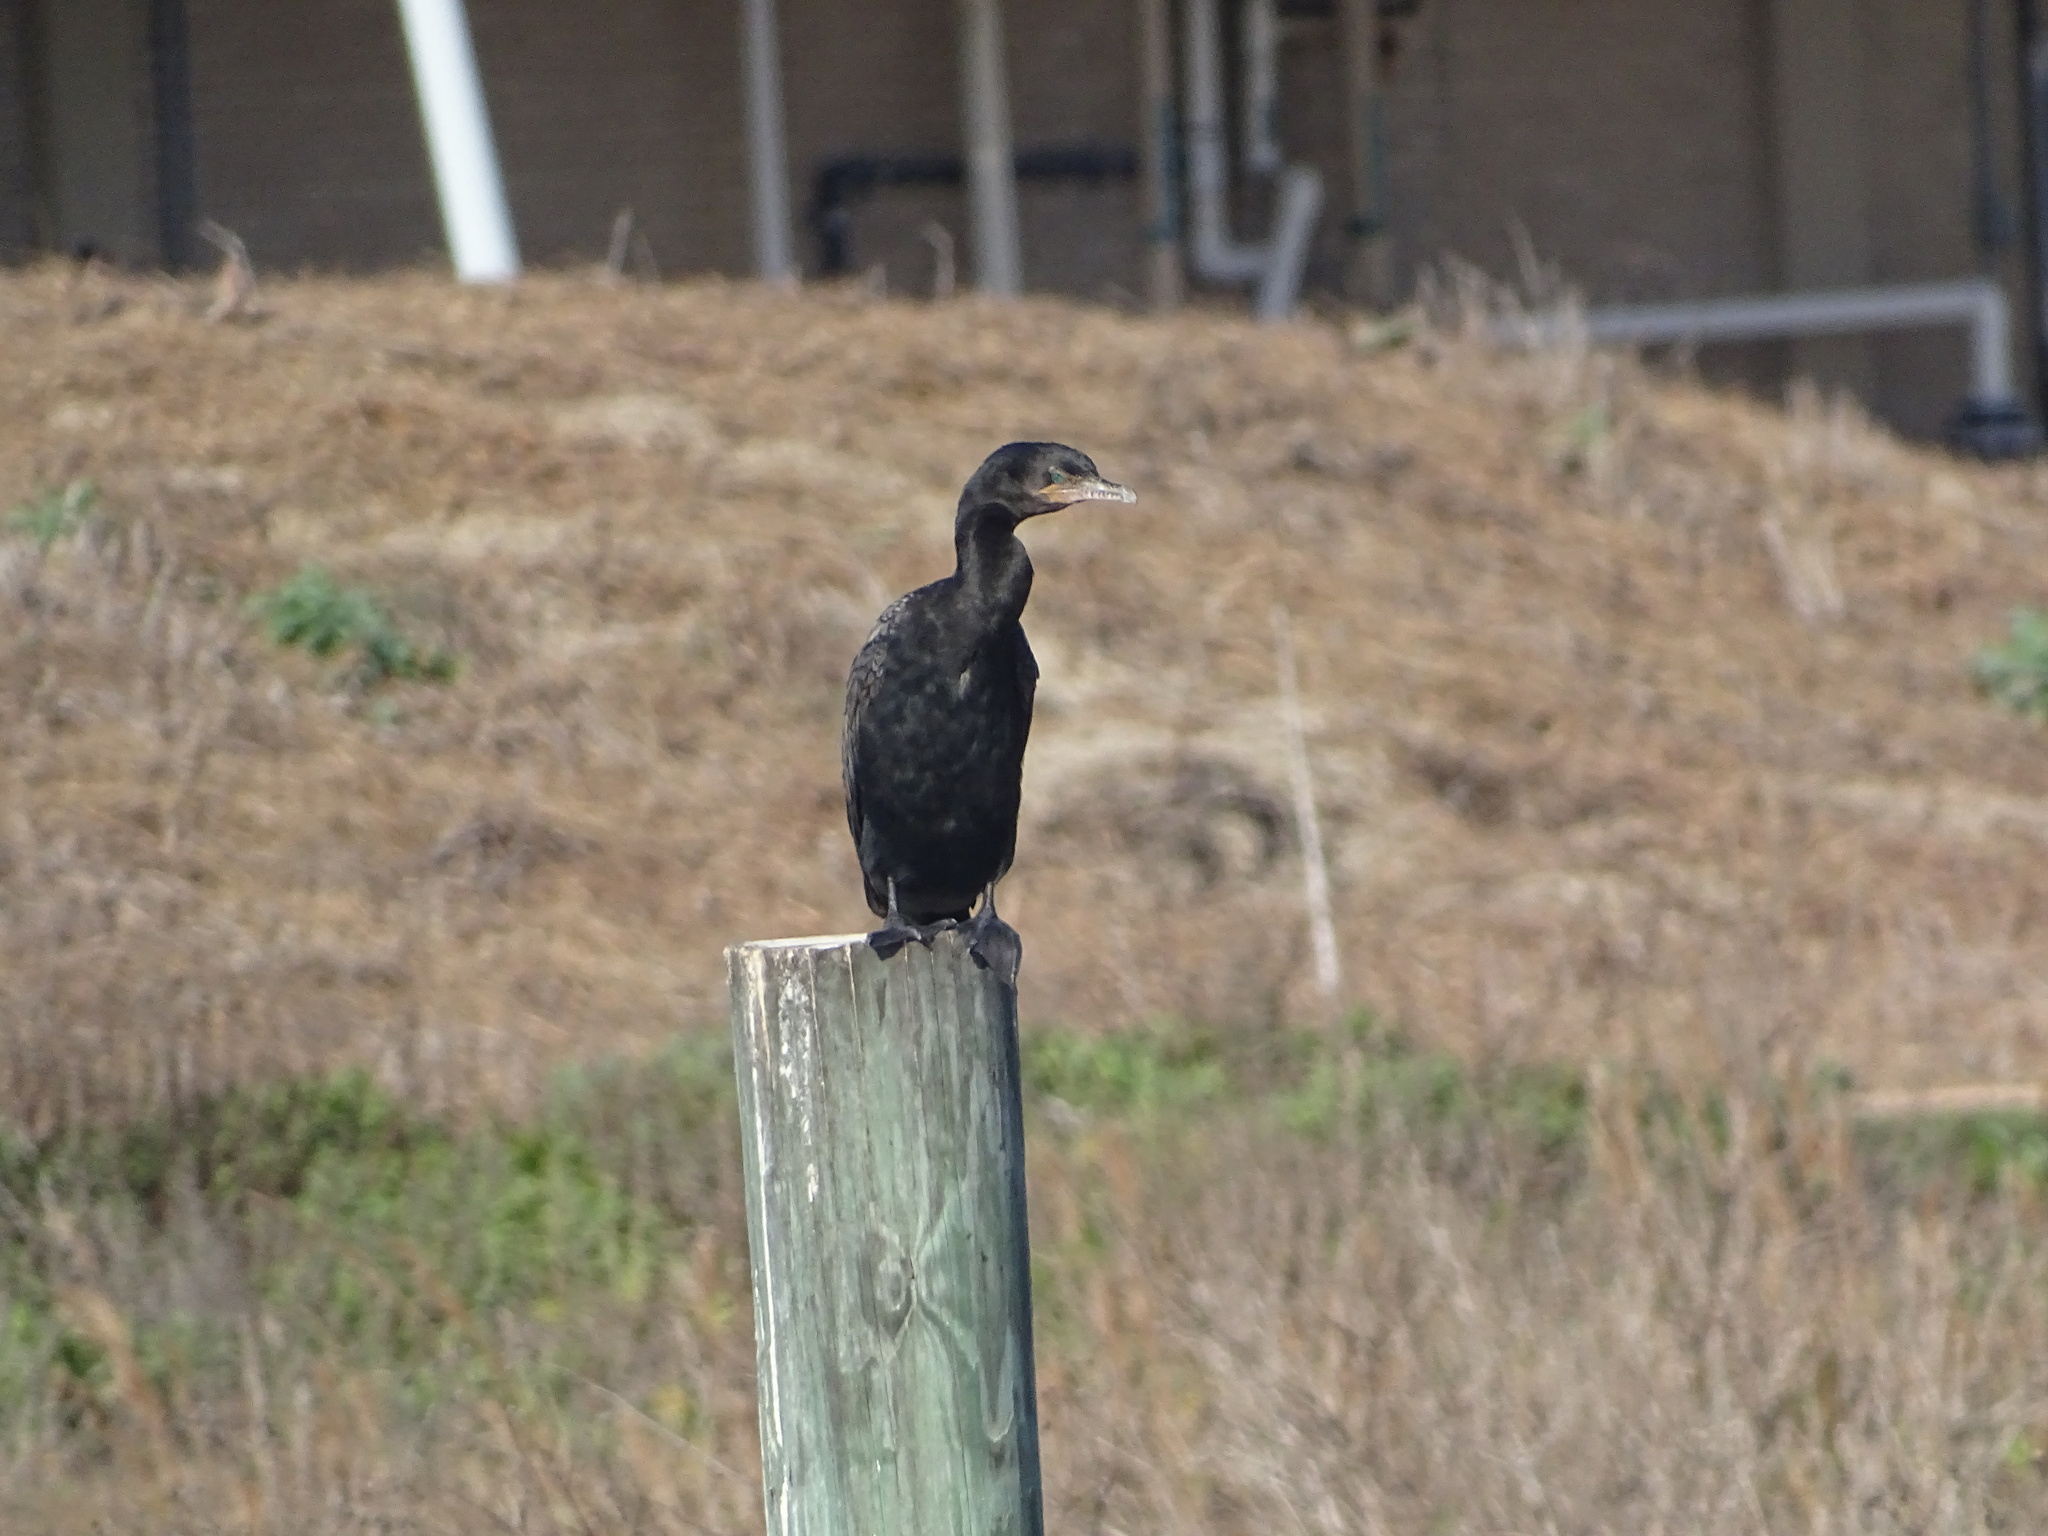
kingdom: Animalia
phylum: Chordata
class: Aves
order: Suliformes
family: Phalacrocoracidae
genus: Phalacrocorax
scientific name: Phalacrocorax brasilianus
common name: Neotropic cormorant
